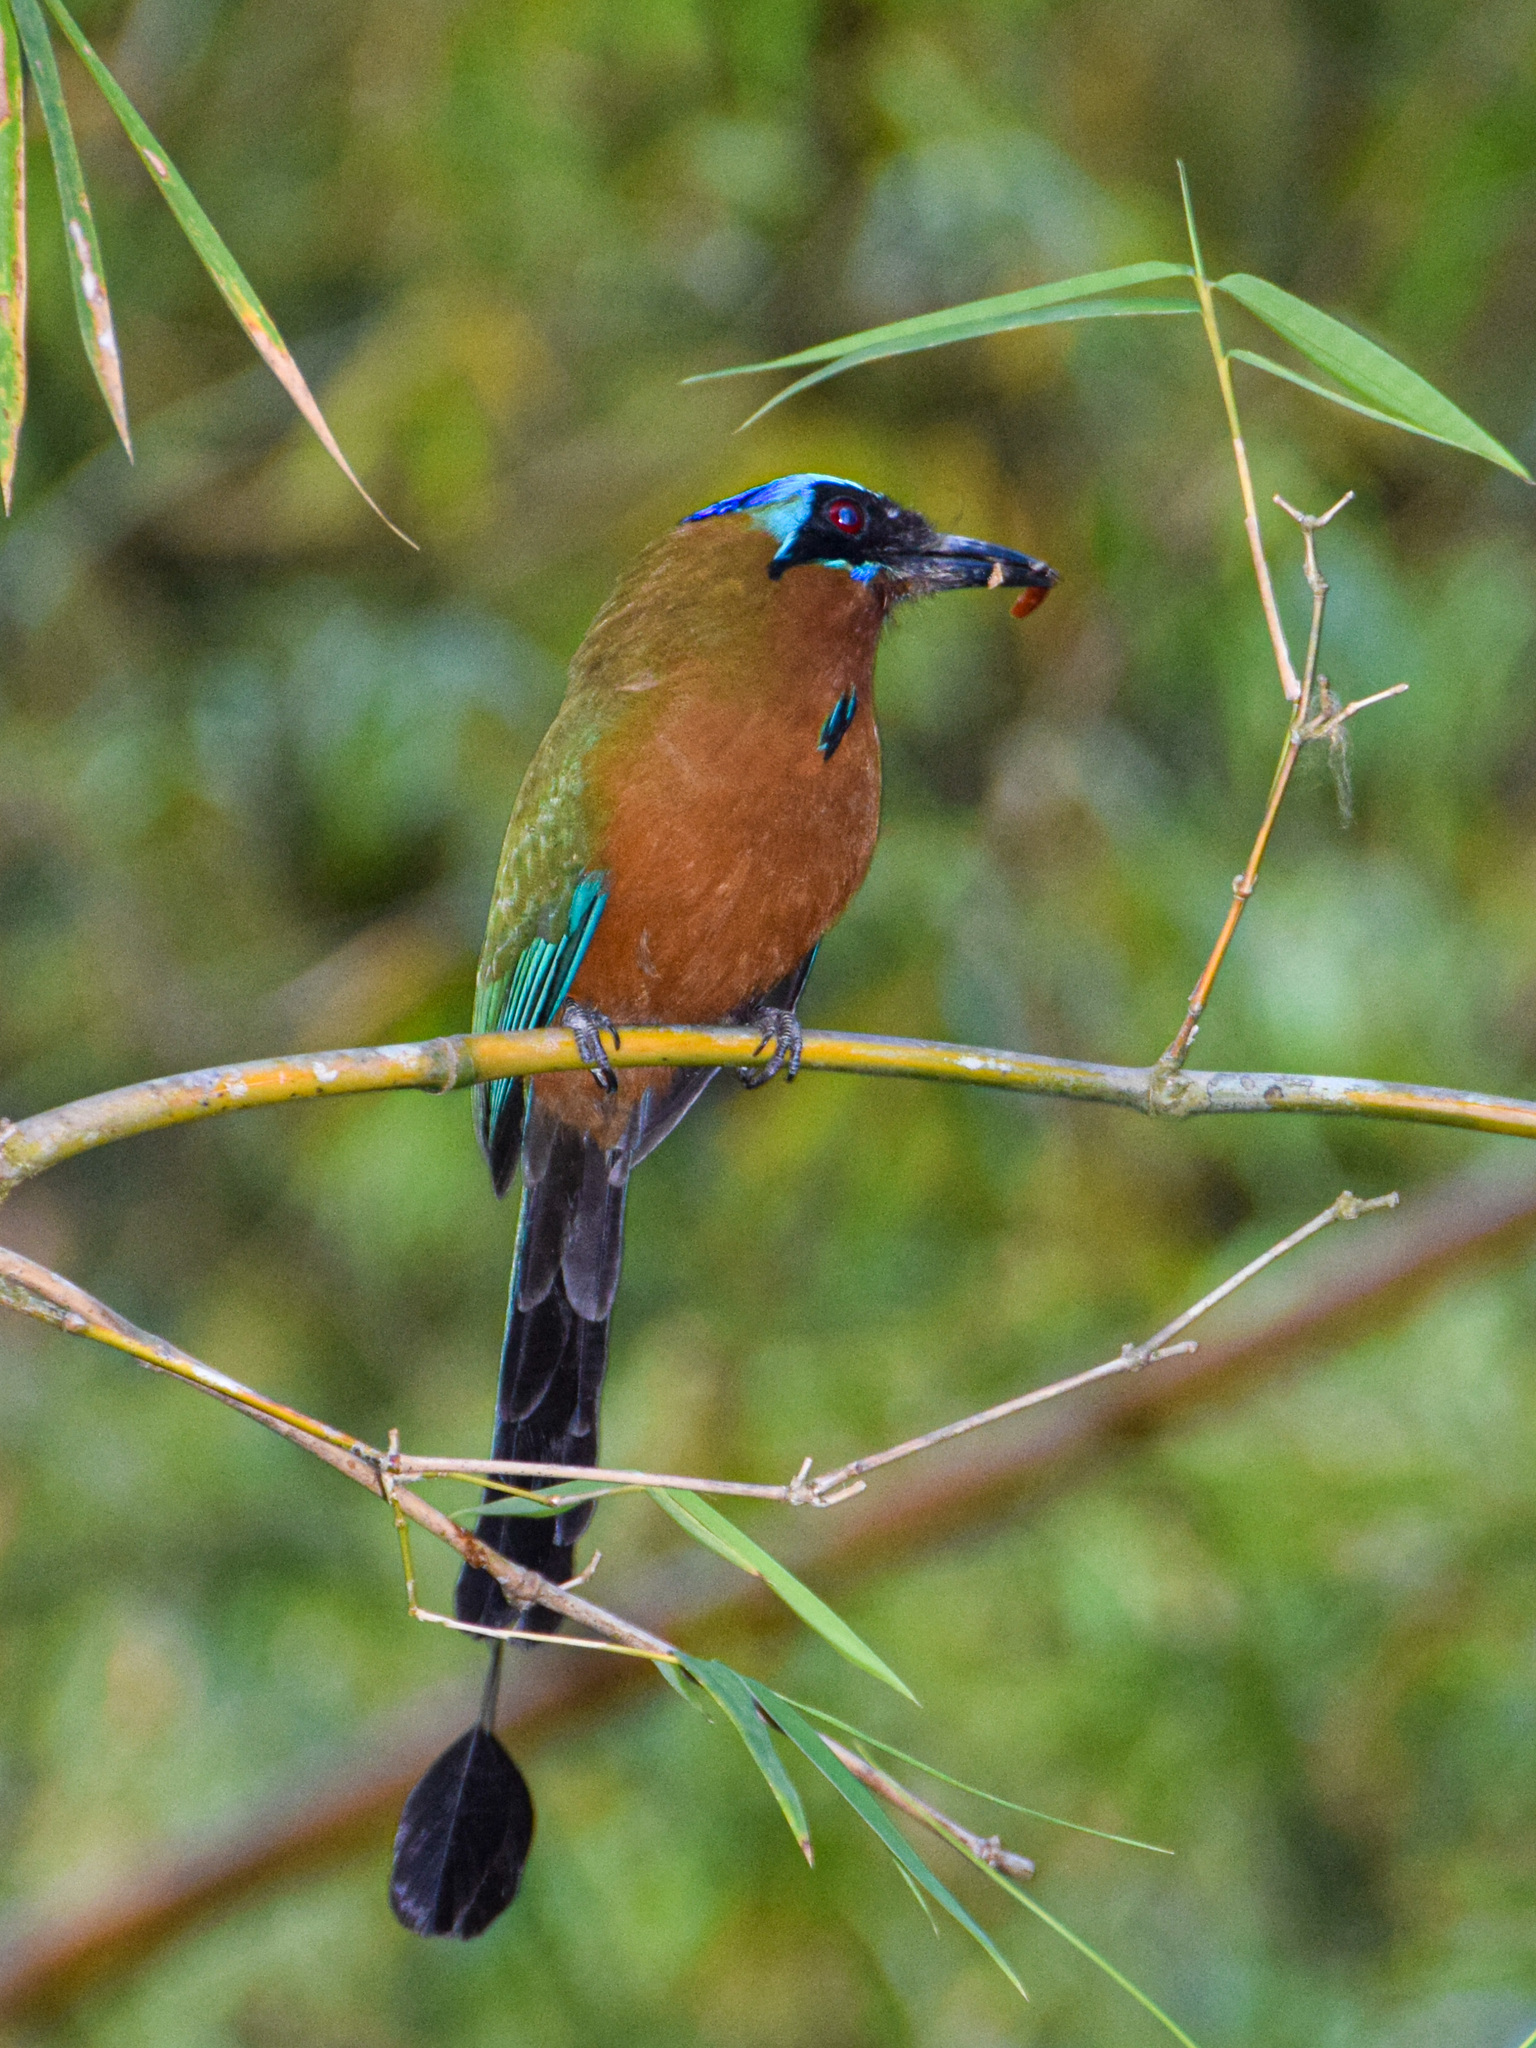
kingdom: Animalia
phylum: Chordata
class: Aves
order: Coraciiformes
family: Momotidae
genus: Momotus
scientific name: Momotus bahamensis
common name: Trinidad motmot
